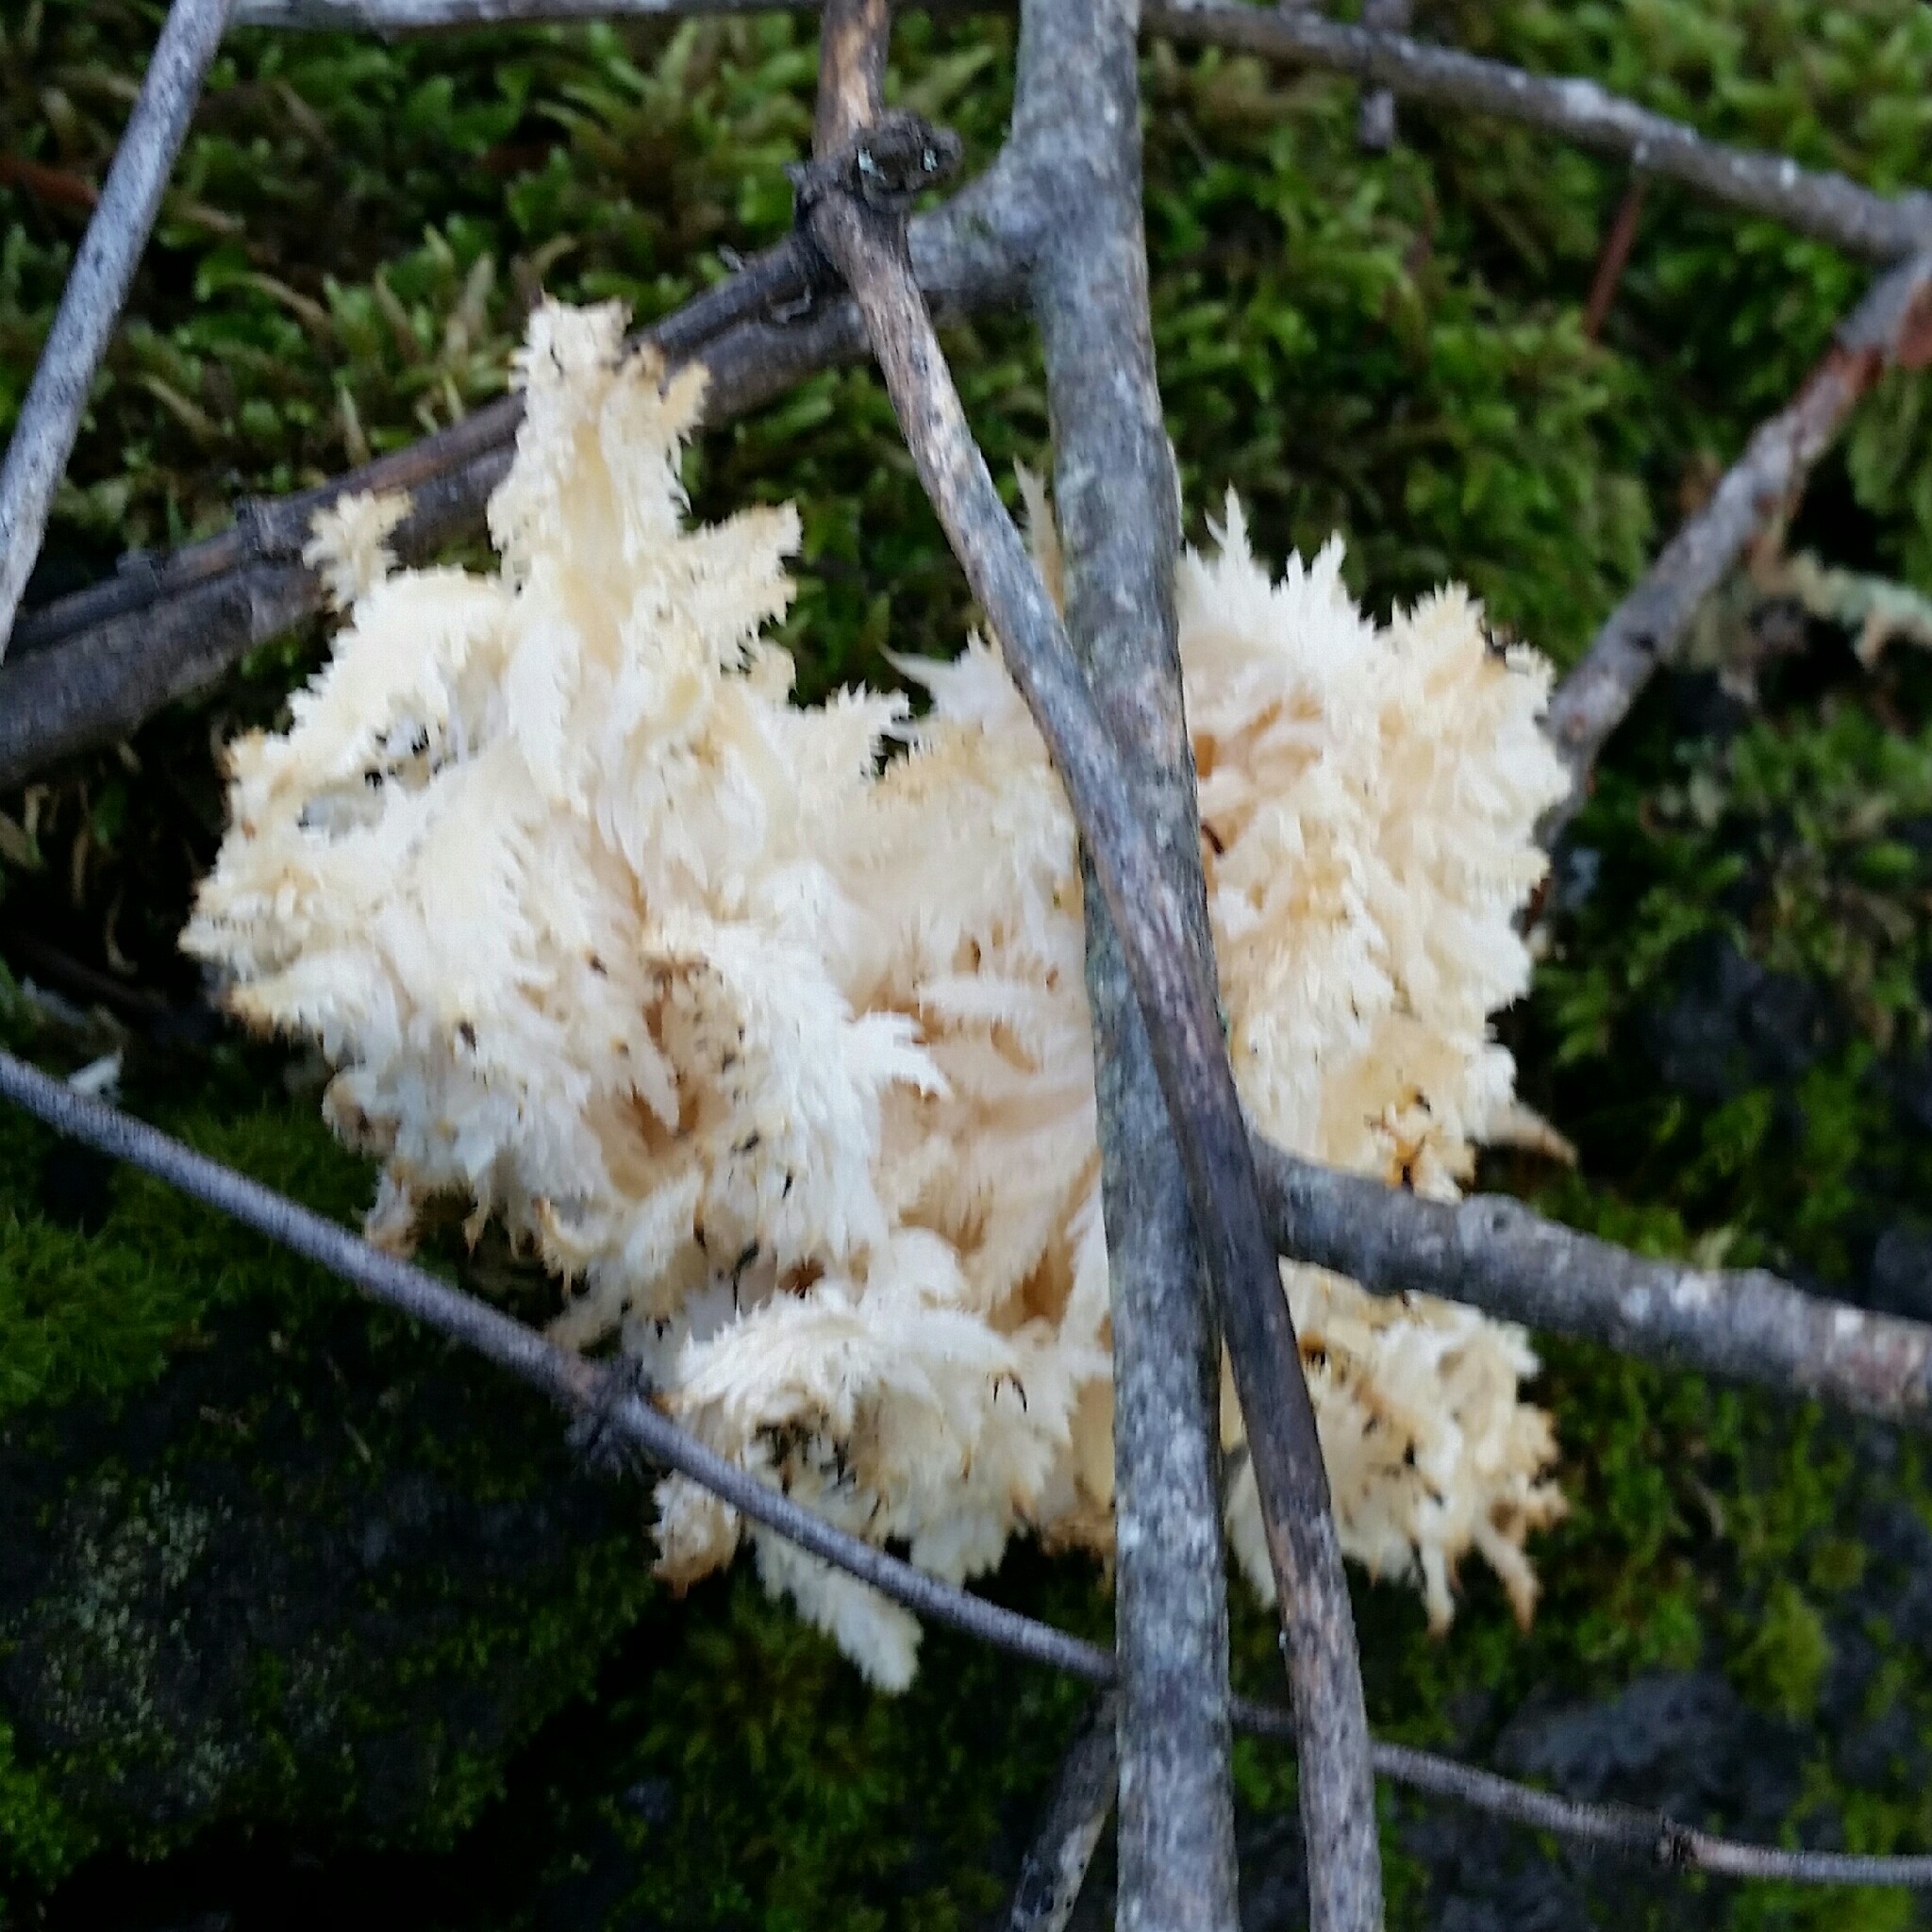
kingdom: Fungi
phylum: Basidiomycota
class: Agaricomycetes
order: Russulales
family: Hericiaceae
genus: Hericium
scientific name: Hericium coralloides
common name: Coral tooth
